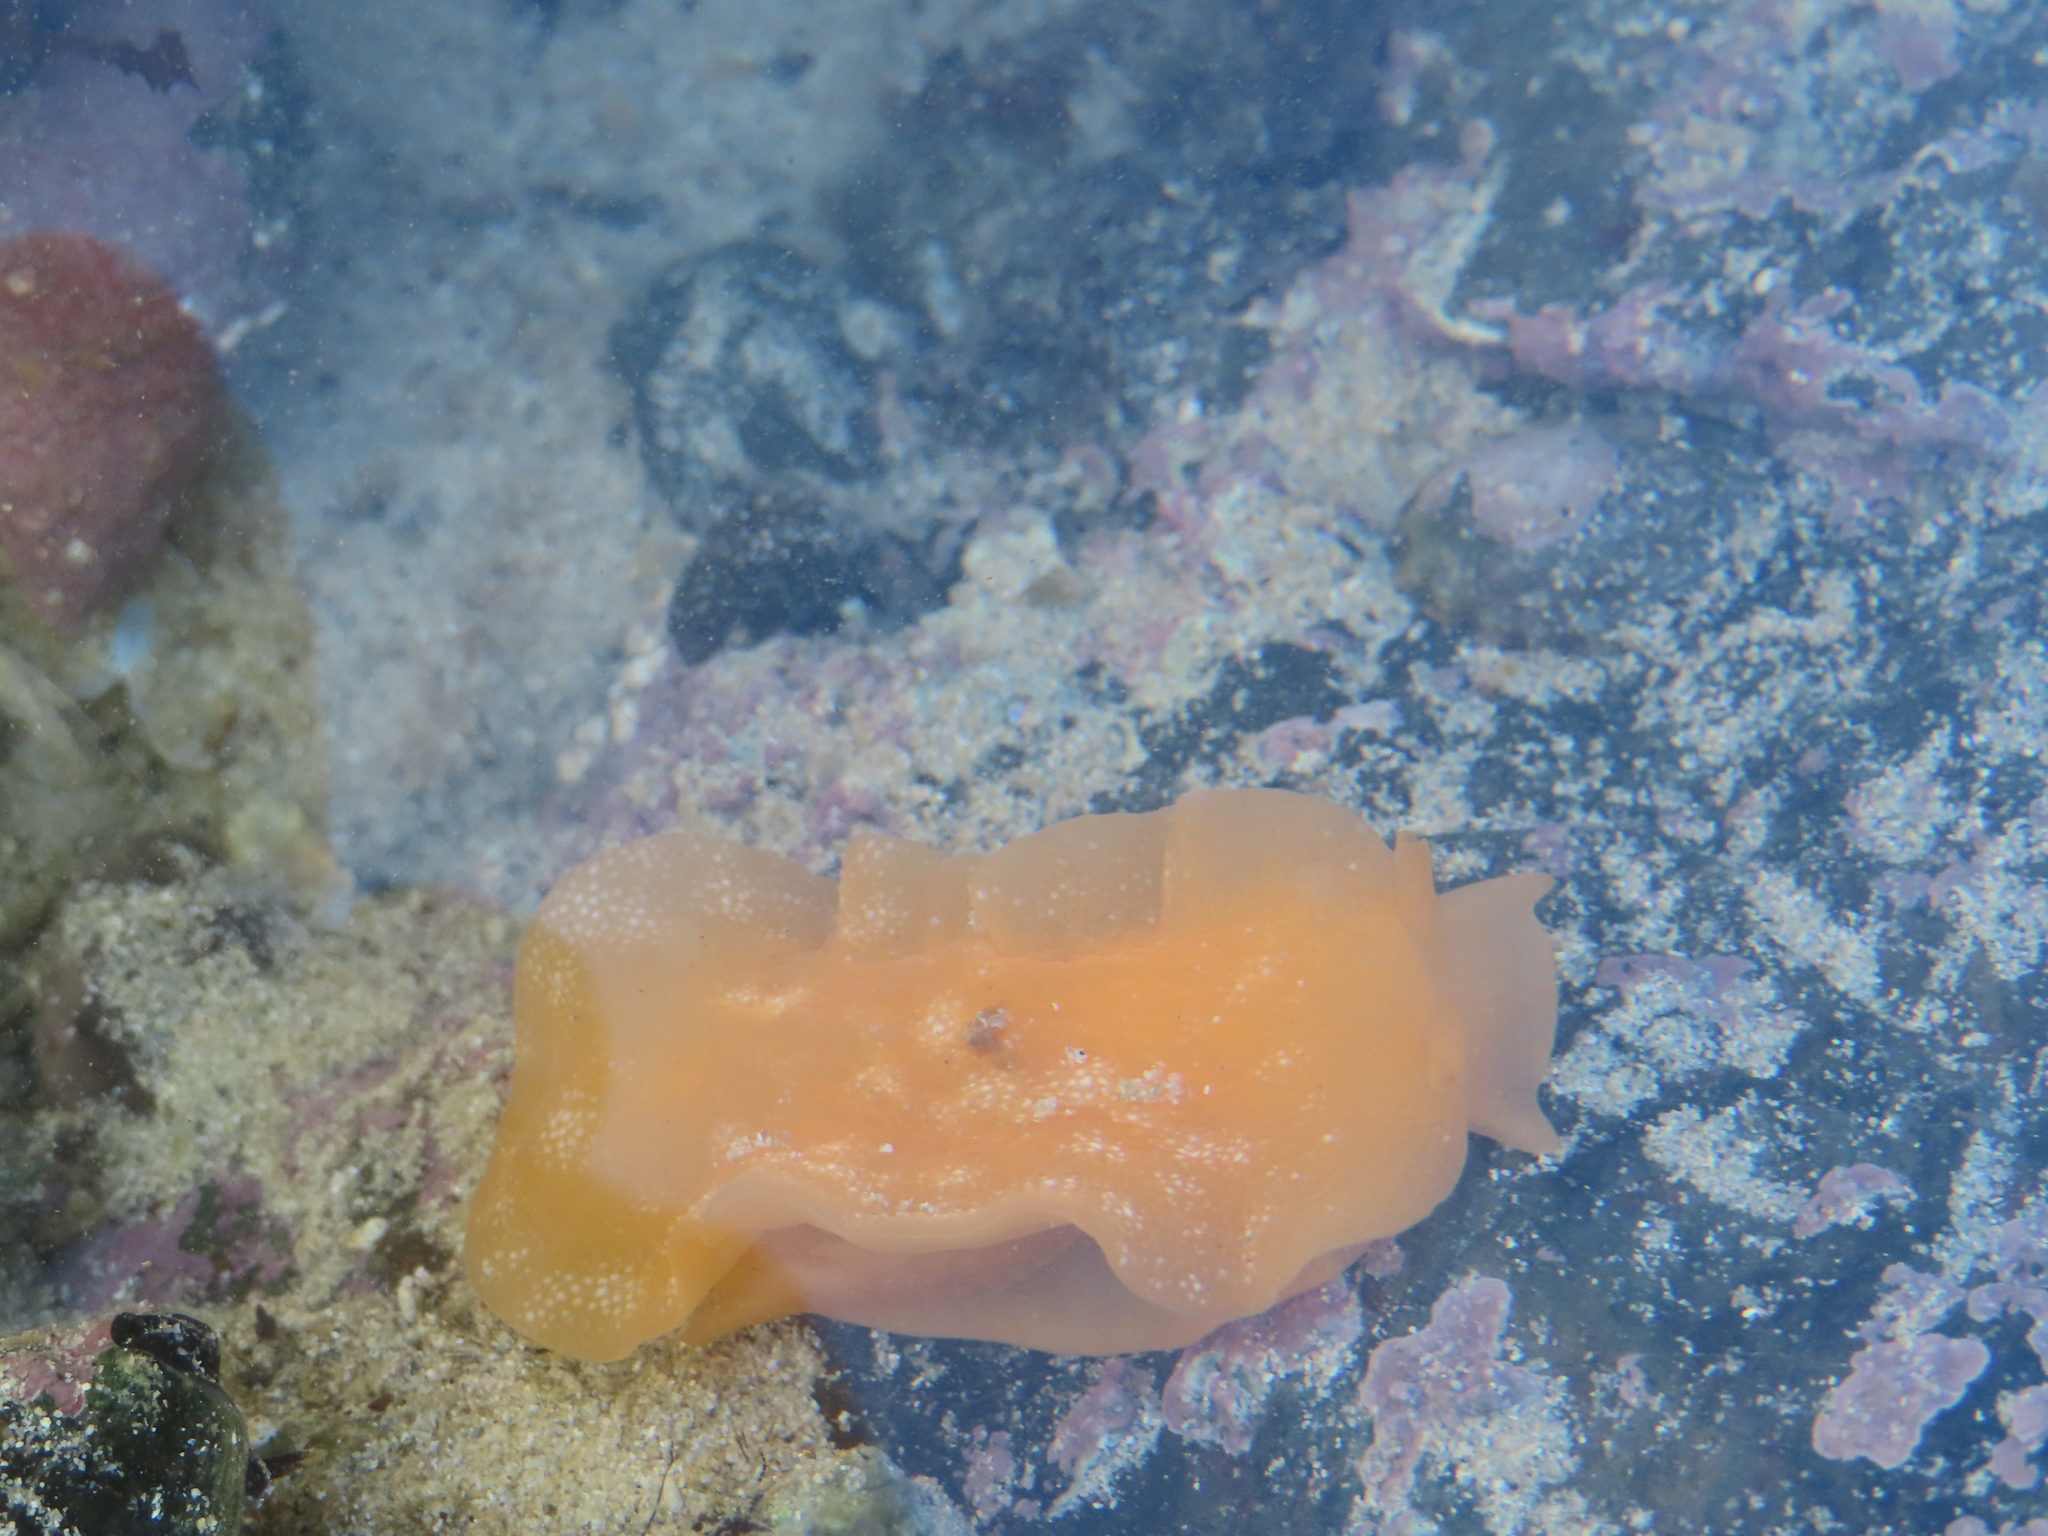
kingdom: Animalia
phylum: Mollusca
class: Gastropoda
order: Pleurobranchida
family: Pleurobranchidae
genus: Berthellina
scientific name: Berthellina granulata
